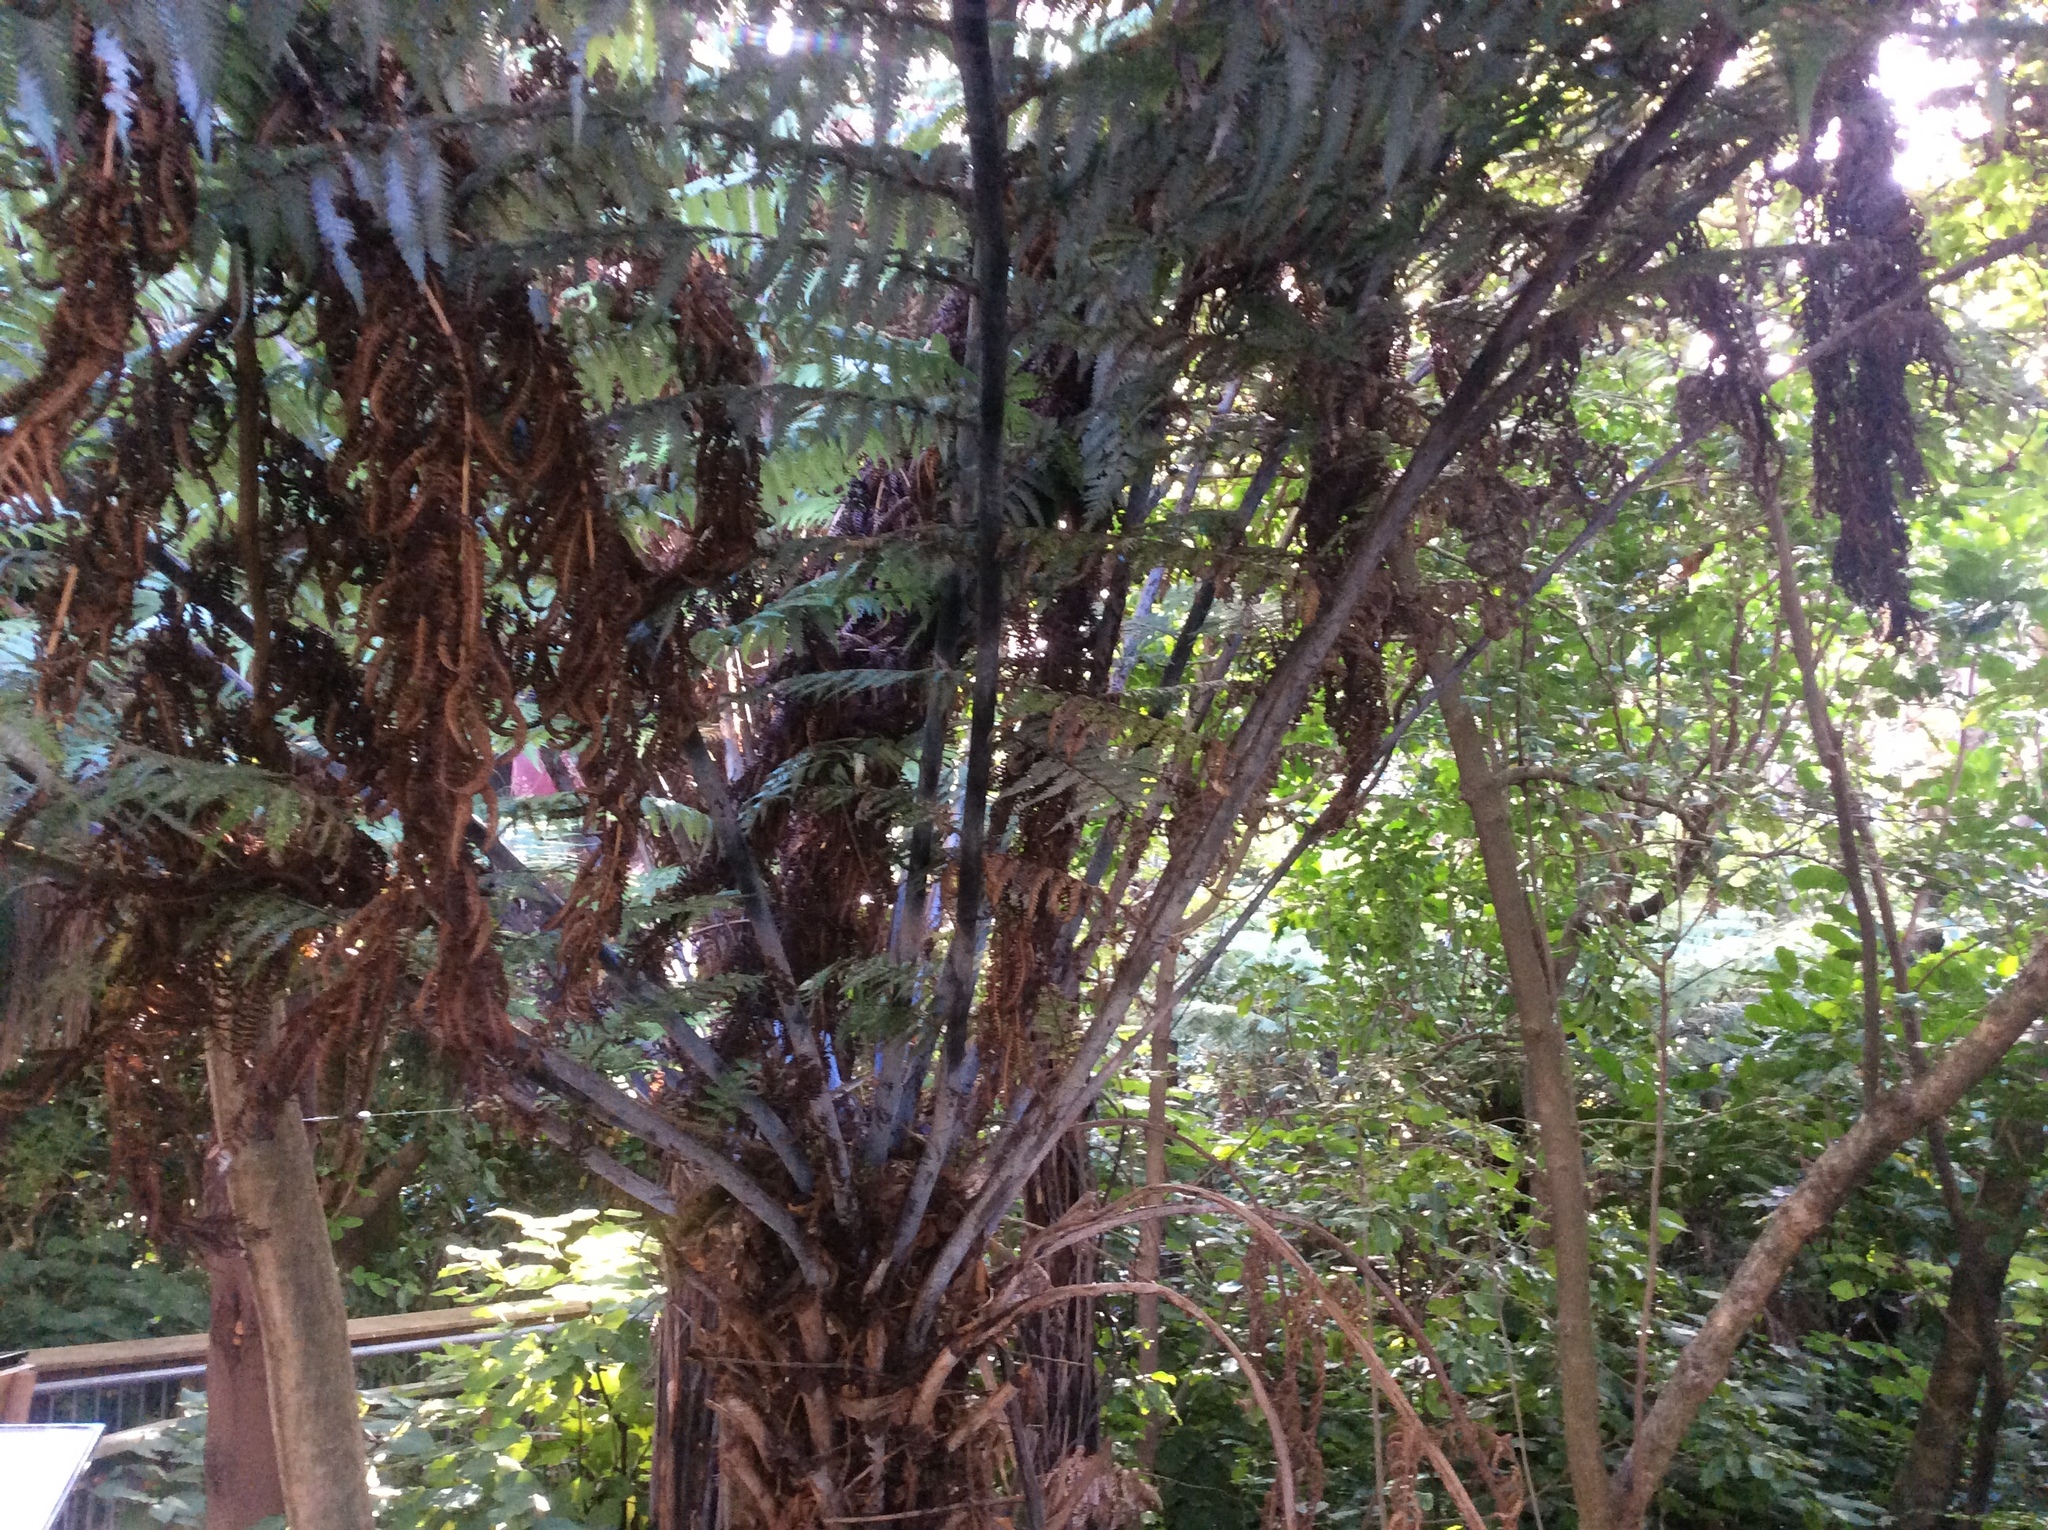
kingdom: Plantae
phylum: Tracheophyta
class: Polypodiopsida
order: Cyatheales
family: Cyatheaceae
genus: Alsophila
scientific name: Alsophila dealbata
